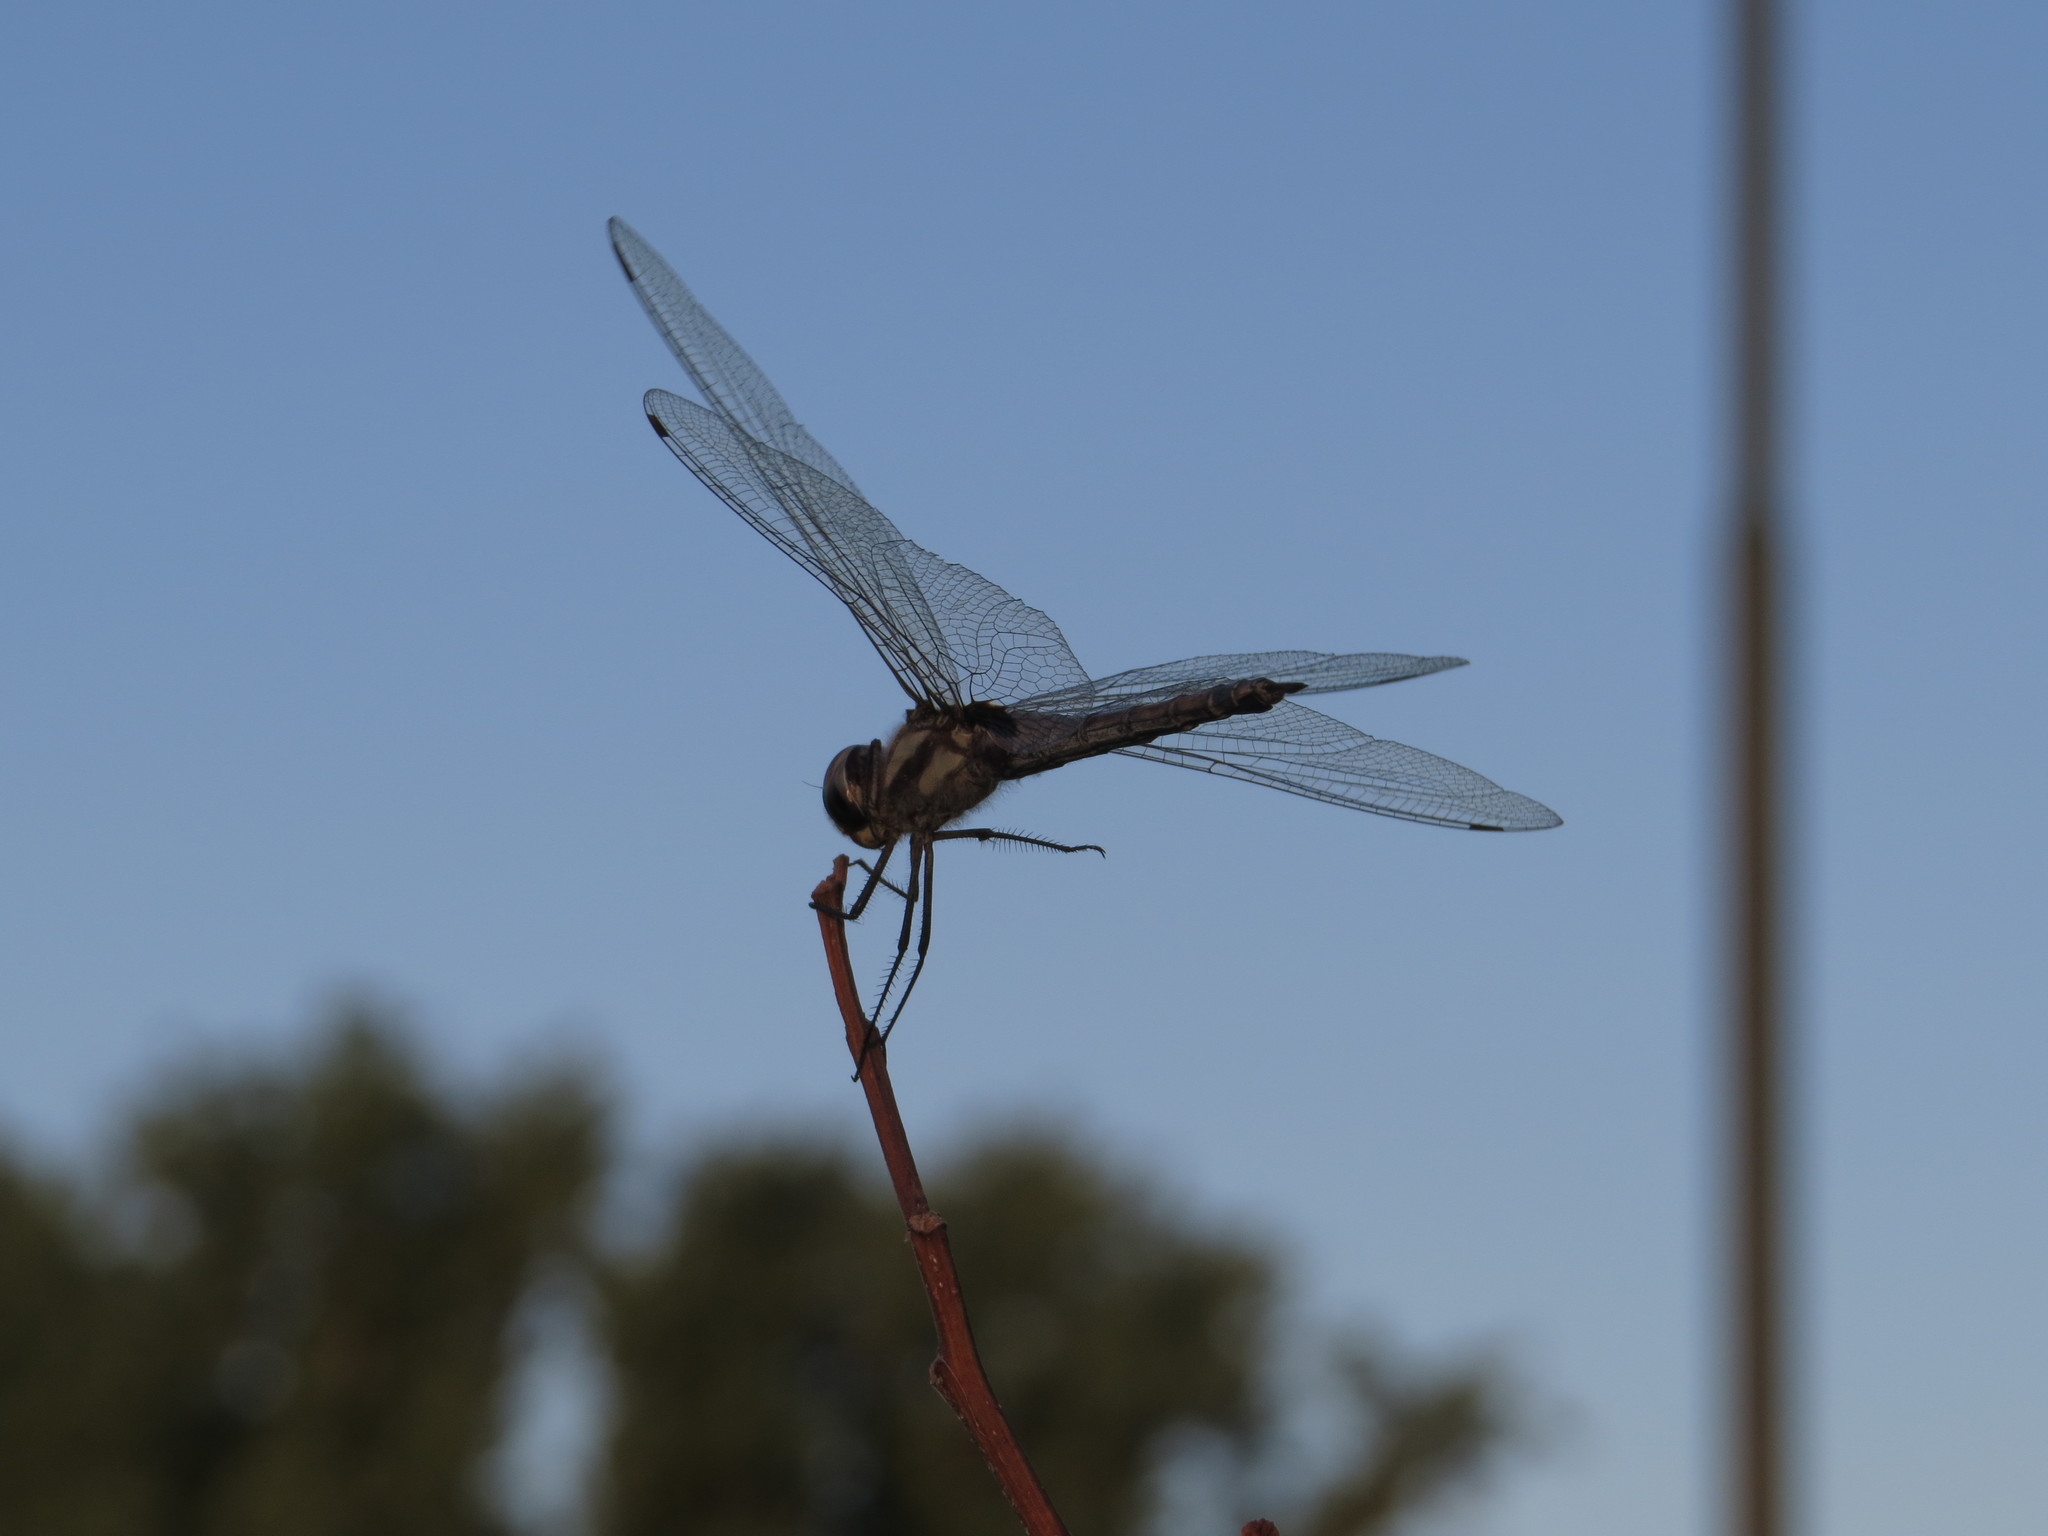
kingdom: Animalia
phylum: Arthropoda
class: Insecta
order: Odonata
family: Libellulidae
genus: Tramea
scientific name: Tramea cophysa
